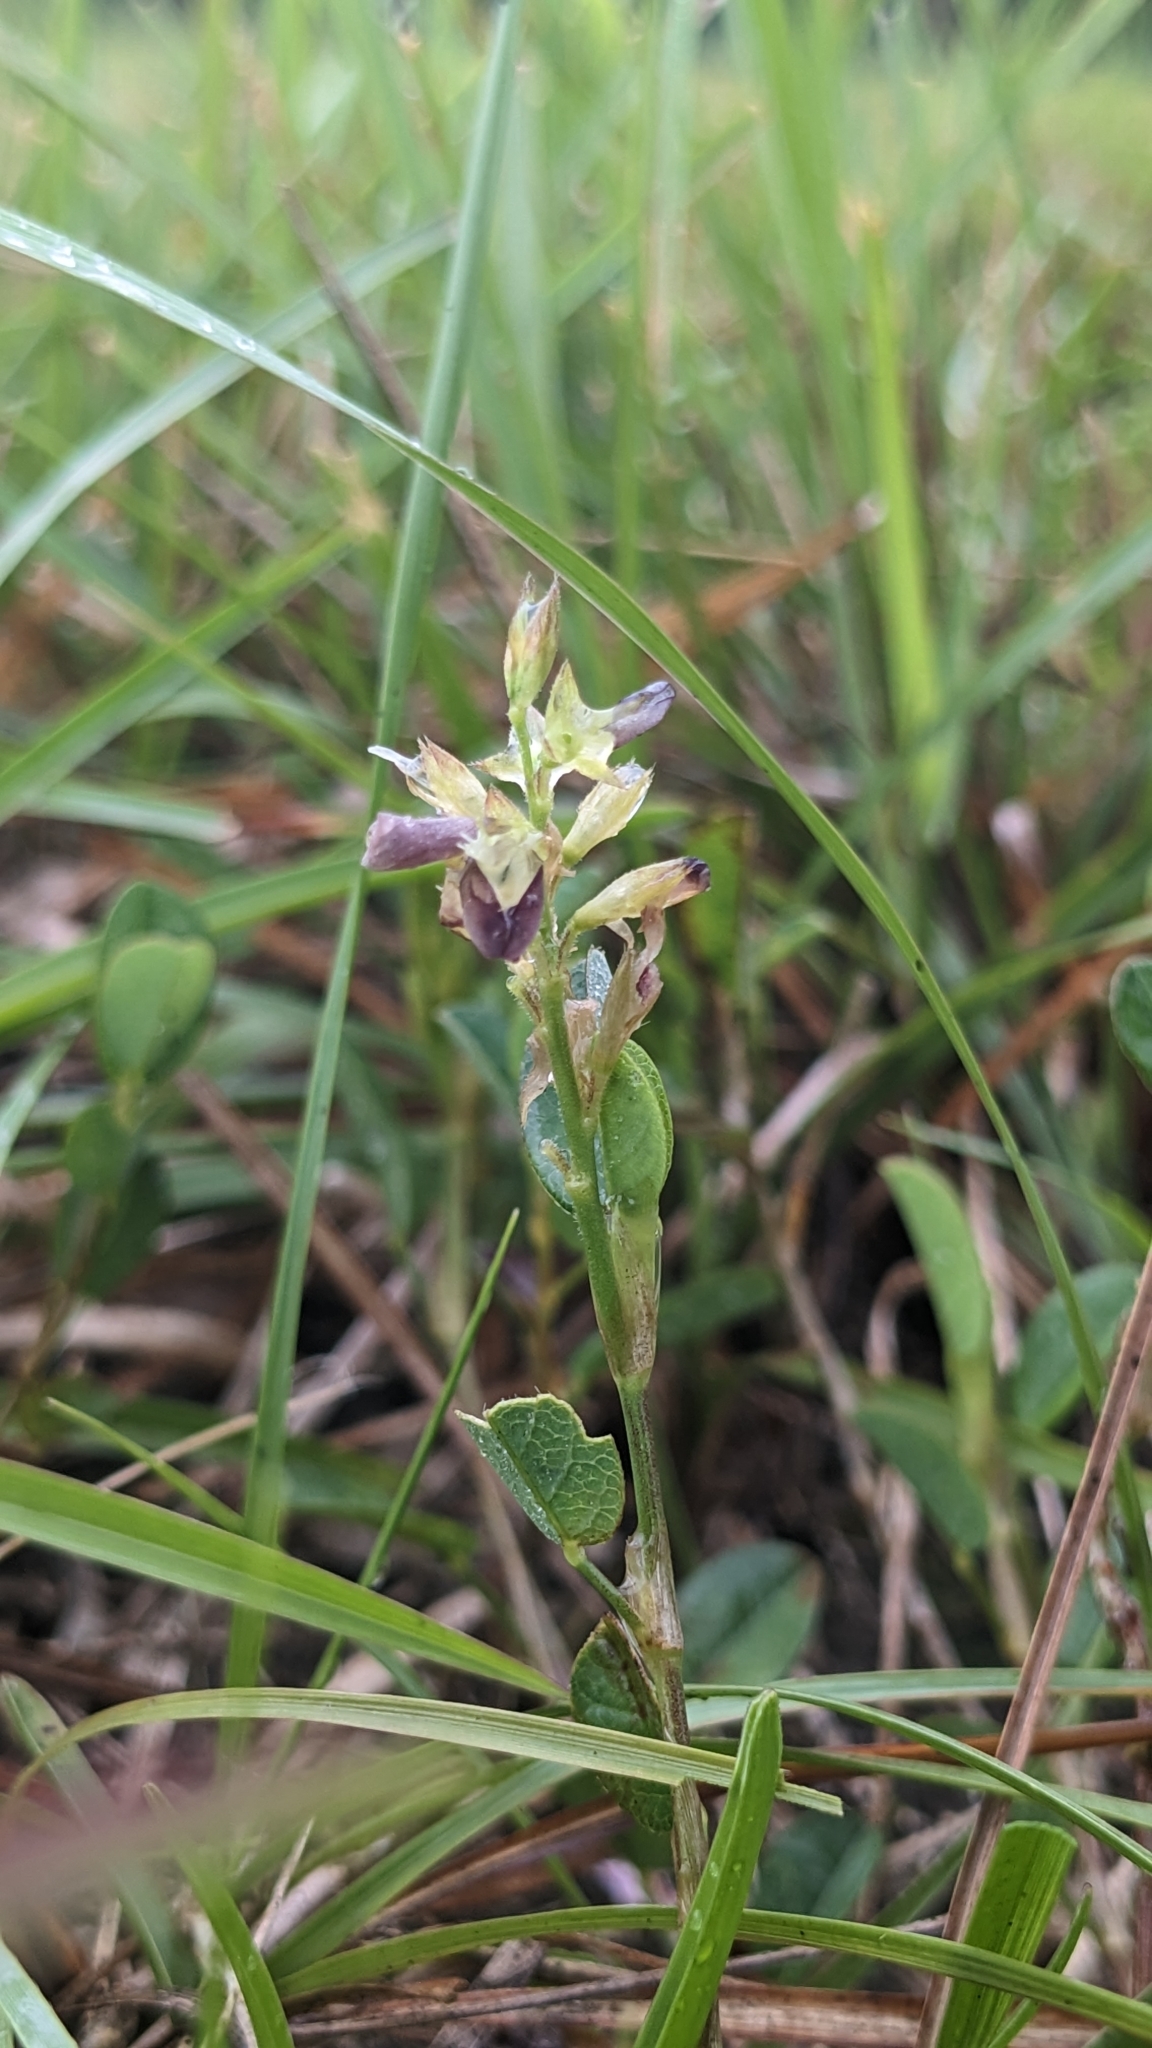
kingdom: Plantae
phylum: Tracheophyta
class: Magnoliopsida
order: Fabales
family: Fabaceae
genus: Alysicarpus
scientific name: Alysicarpus vaginalis
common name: White moneywort
